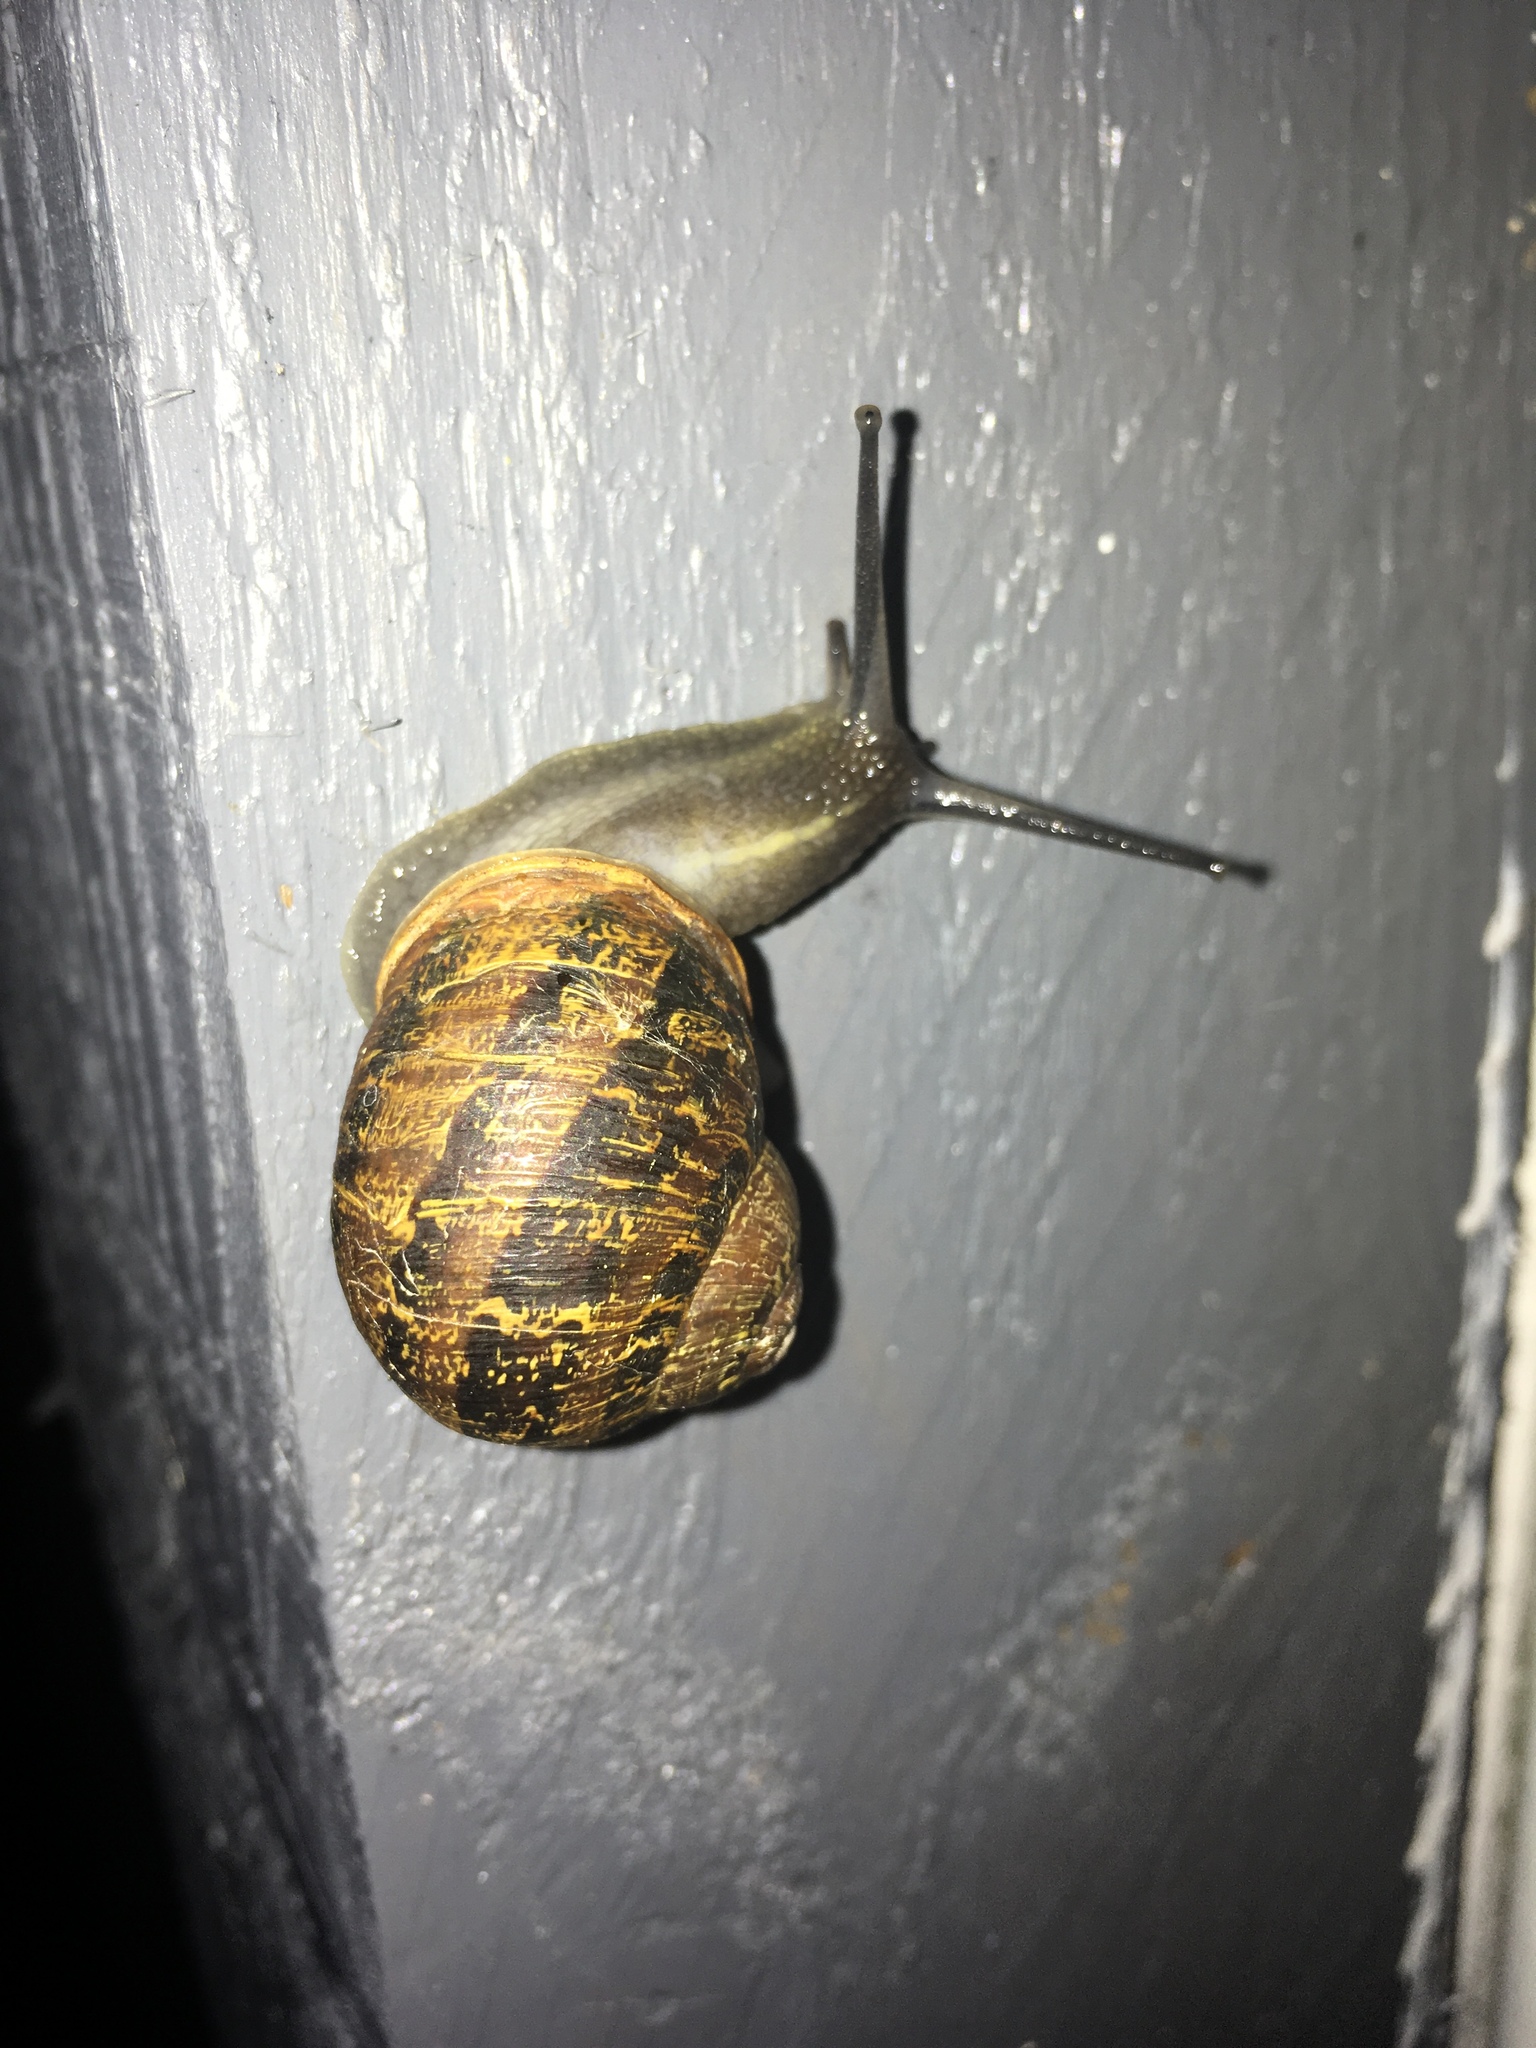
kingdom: Animalia
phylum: Mollusca
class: Gastropoda
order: Stylommatophora
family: Helicidae
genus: Cornu
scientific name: Cornu aspersum
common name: Brown garden snail
